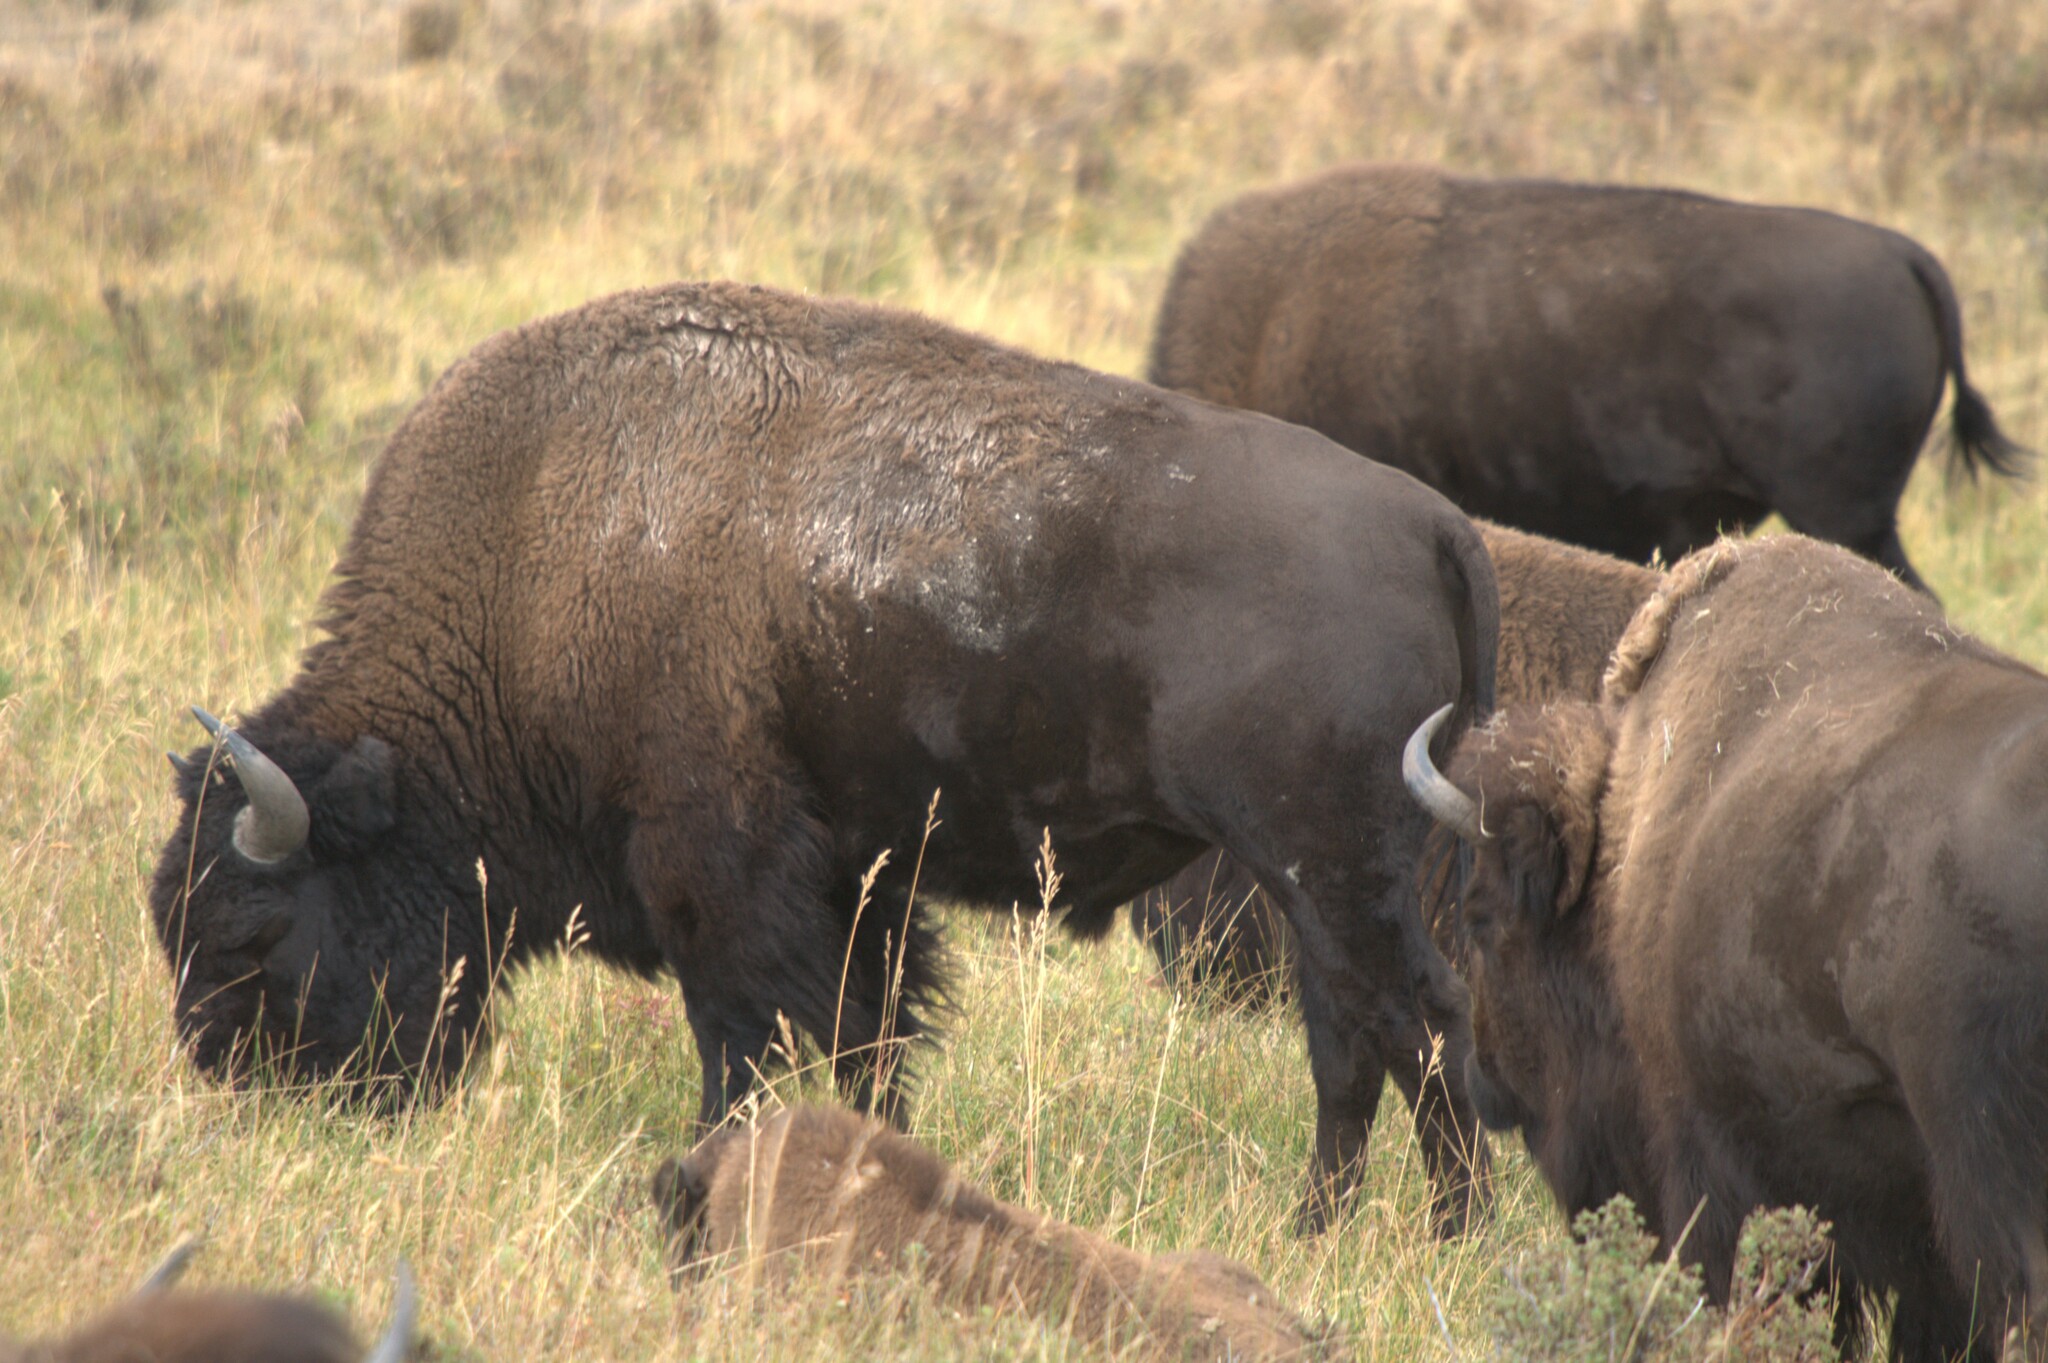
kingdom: Animalia
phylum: Chordata
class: Mammalia
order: Artiodactyla
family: Bovidae
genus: Bison
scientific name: Bison bison
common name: American bison
